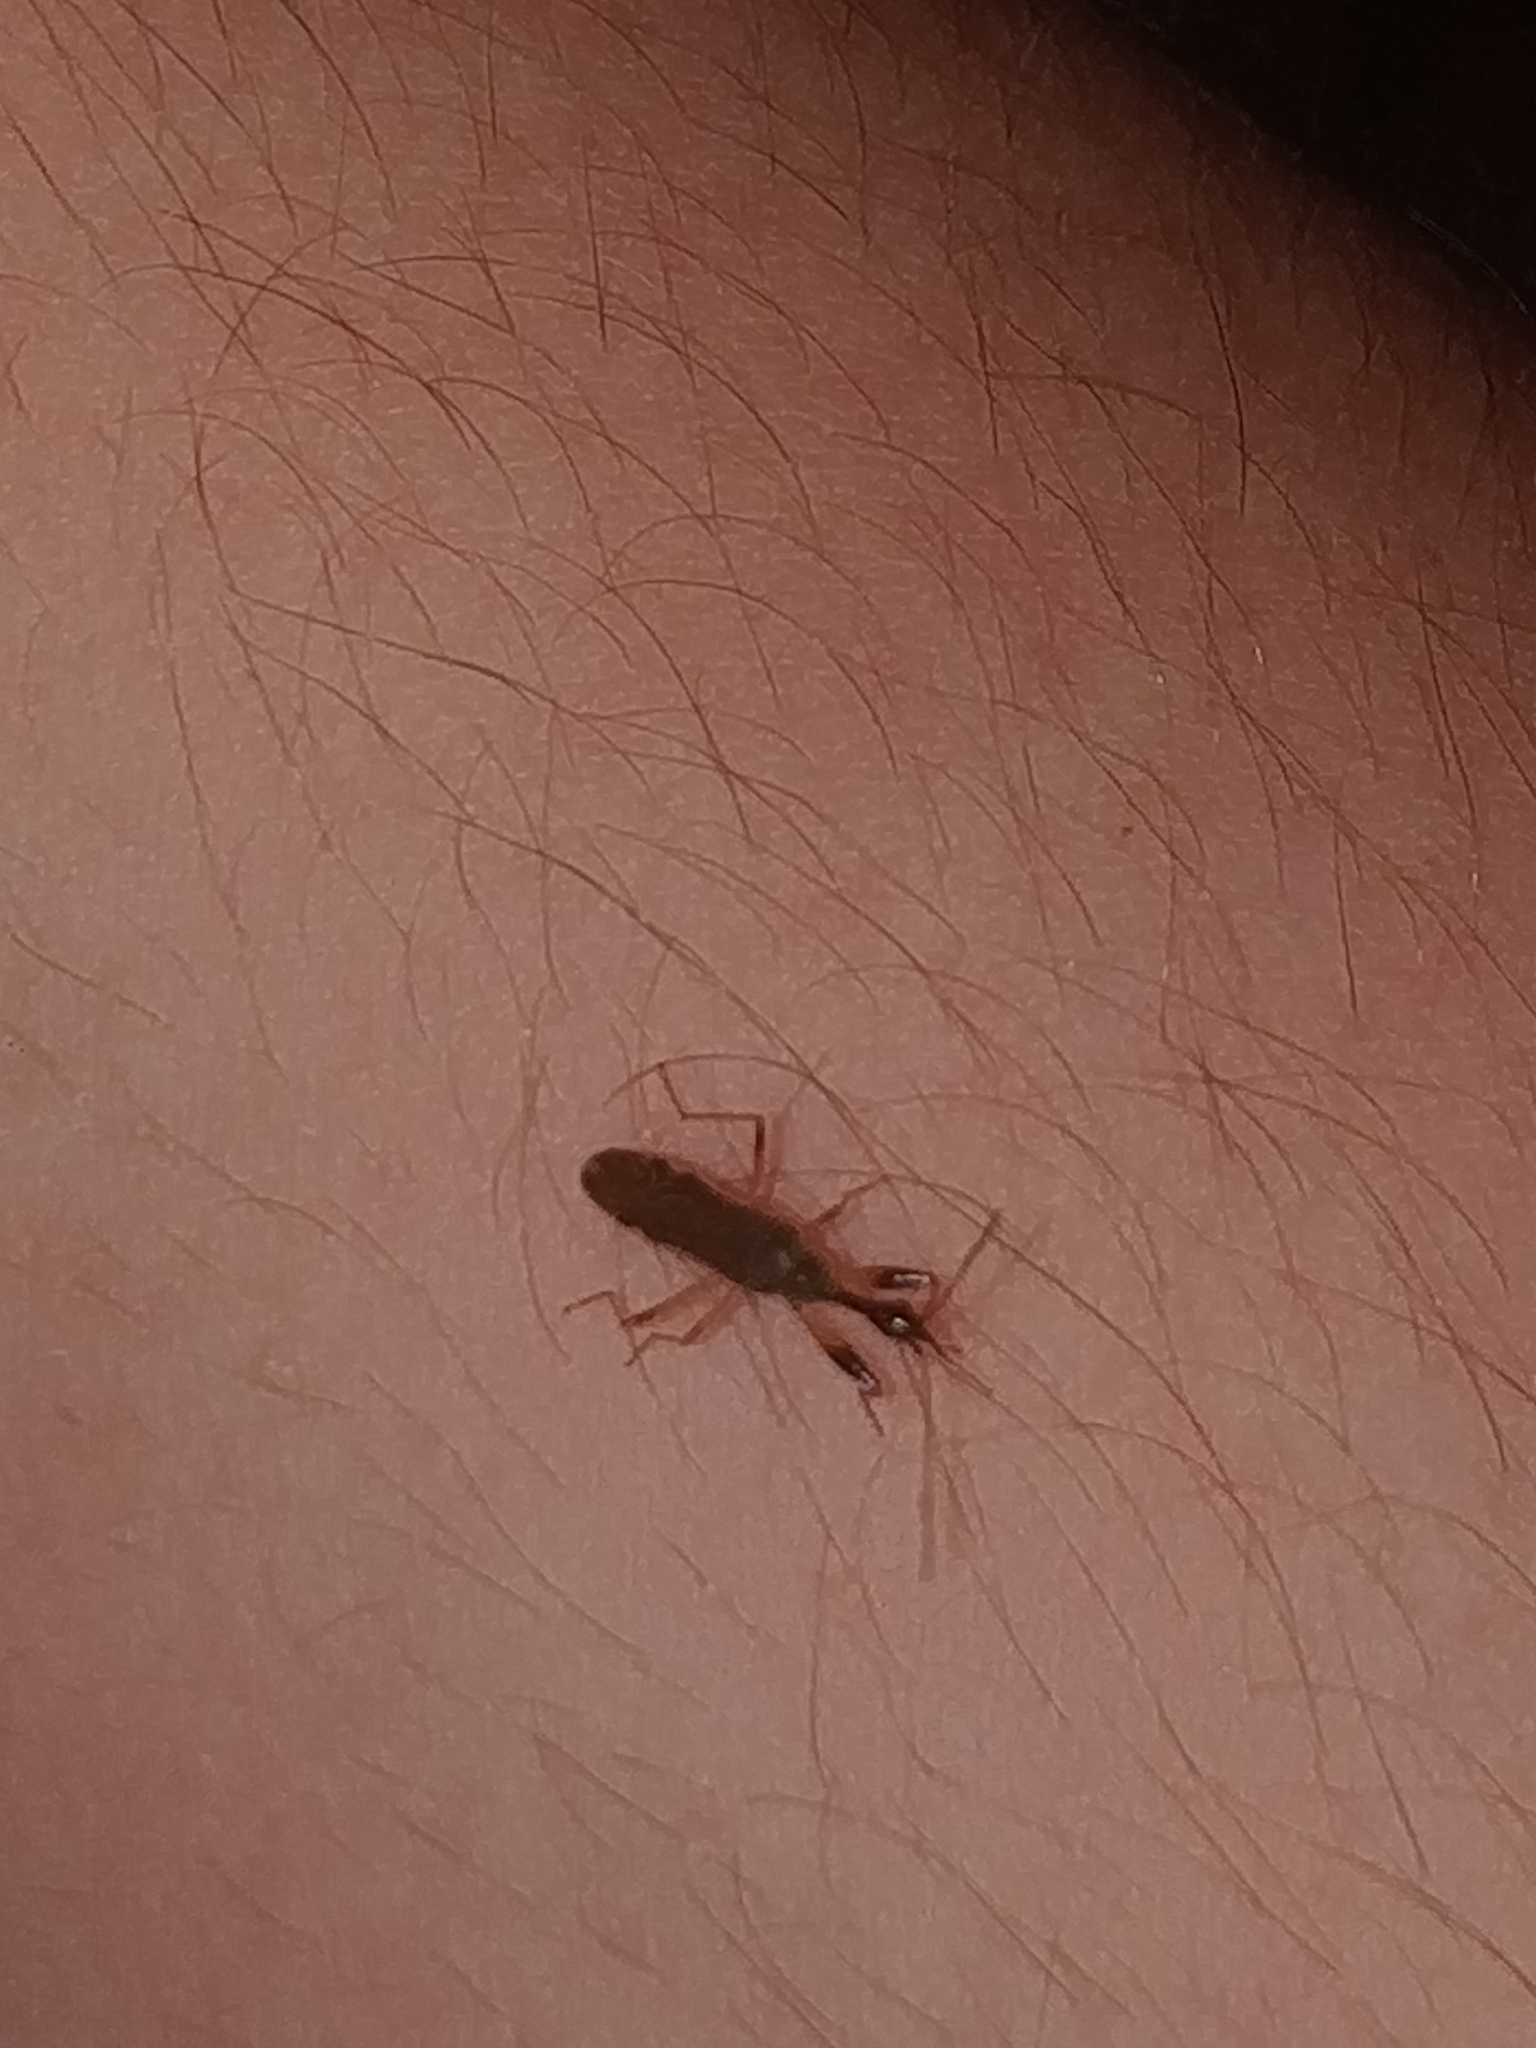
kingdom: Animalia
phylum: Arthropoda
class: Insecta
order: Hemiptera
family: Rhyparochromidae
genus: Myodocha
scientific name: Myodocha serripes
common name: Long-necked seed bug
